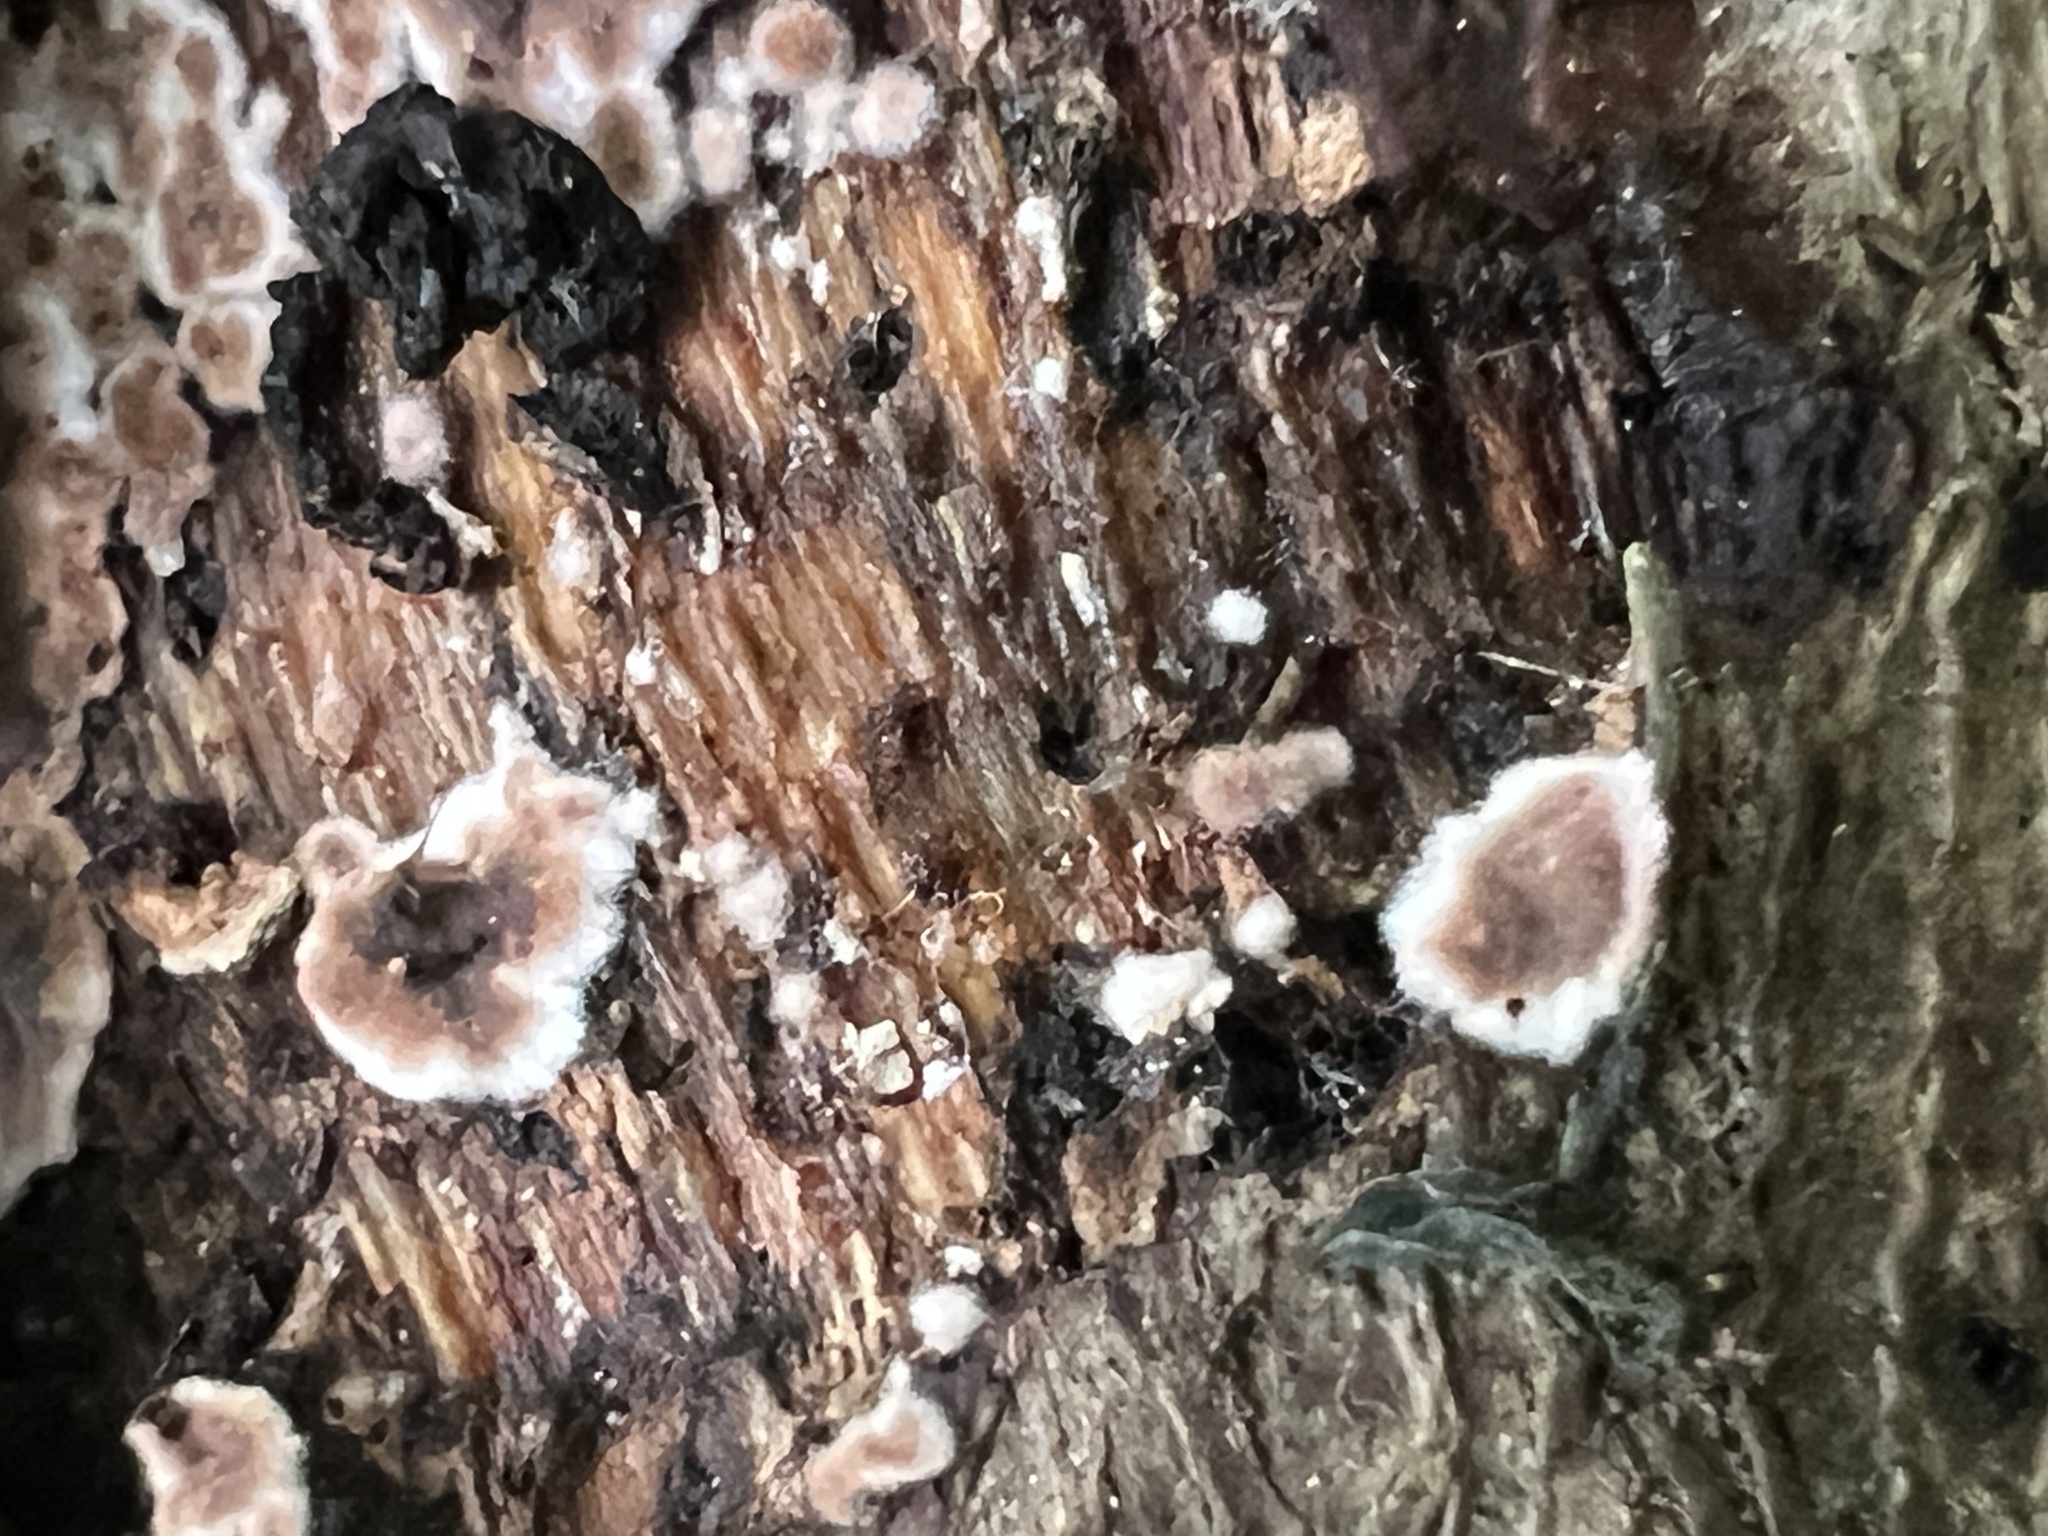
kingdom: Fungi
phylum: Basidiomycota
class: Agaricomycetes
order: Russulales
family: Peniophoraceae
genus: Peniophora
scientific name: Peniophora albobadia
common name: Giraffe spots
